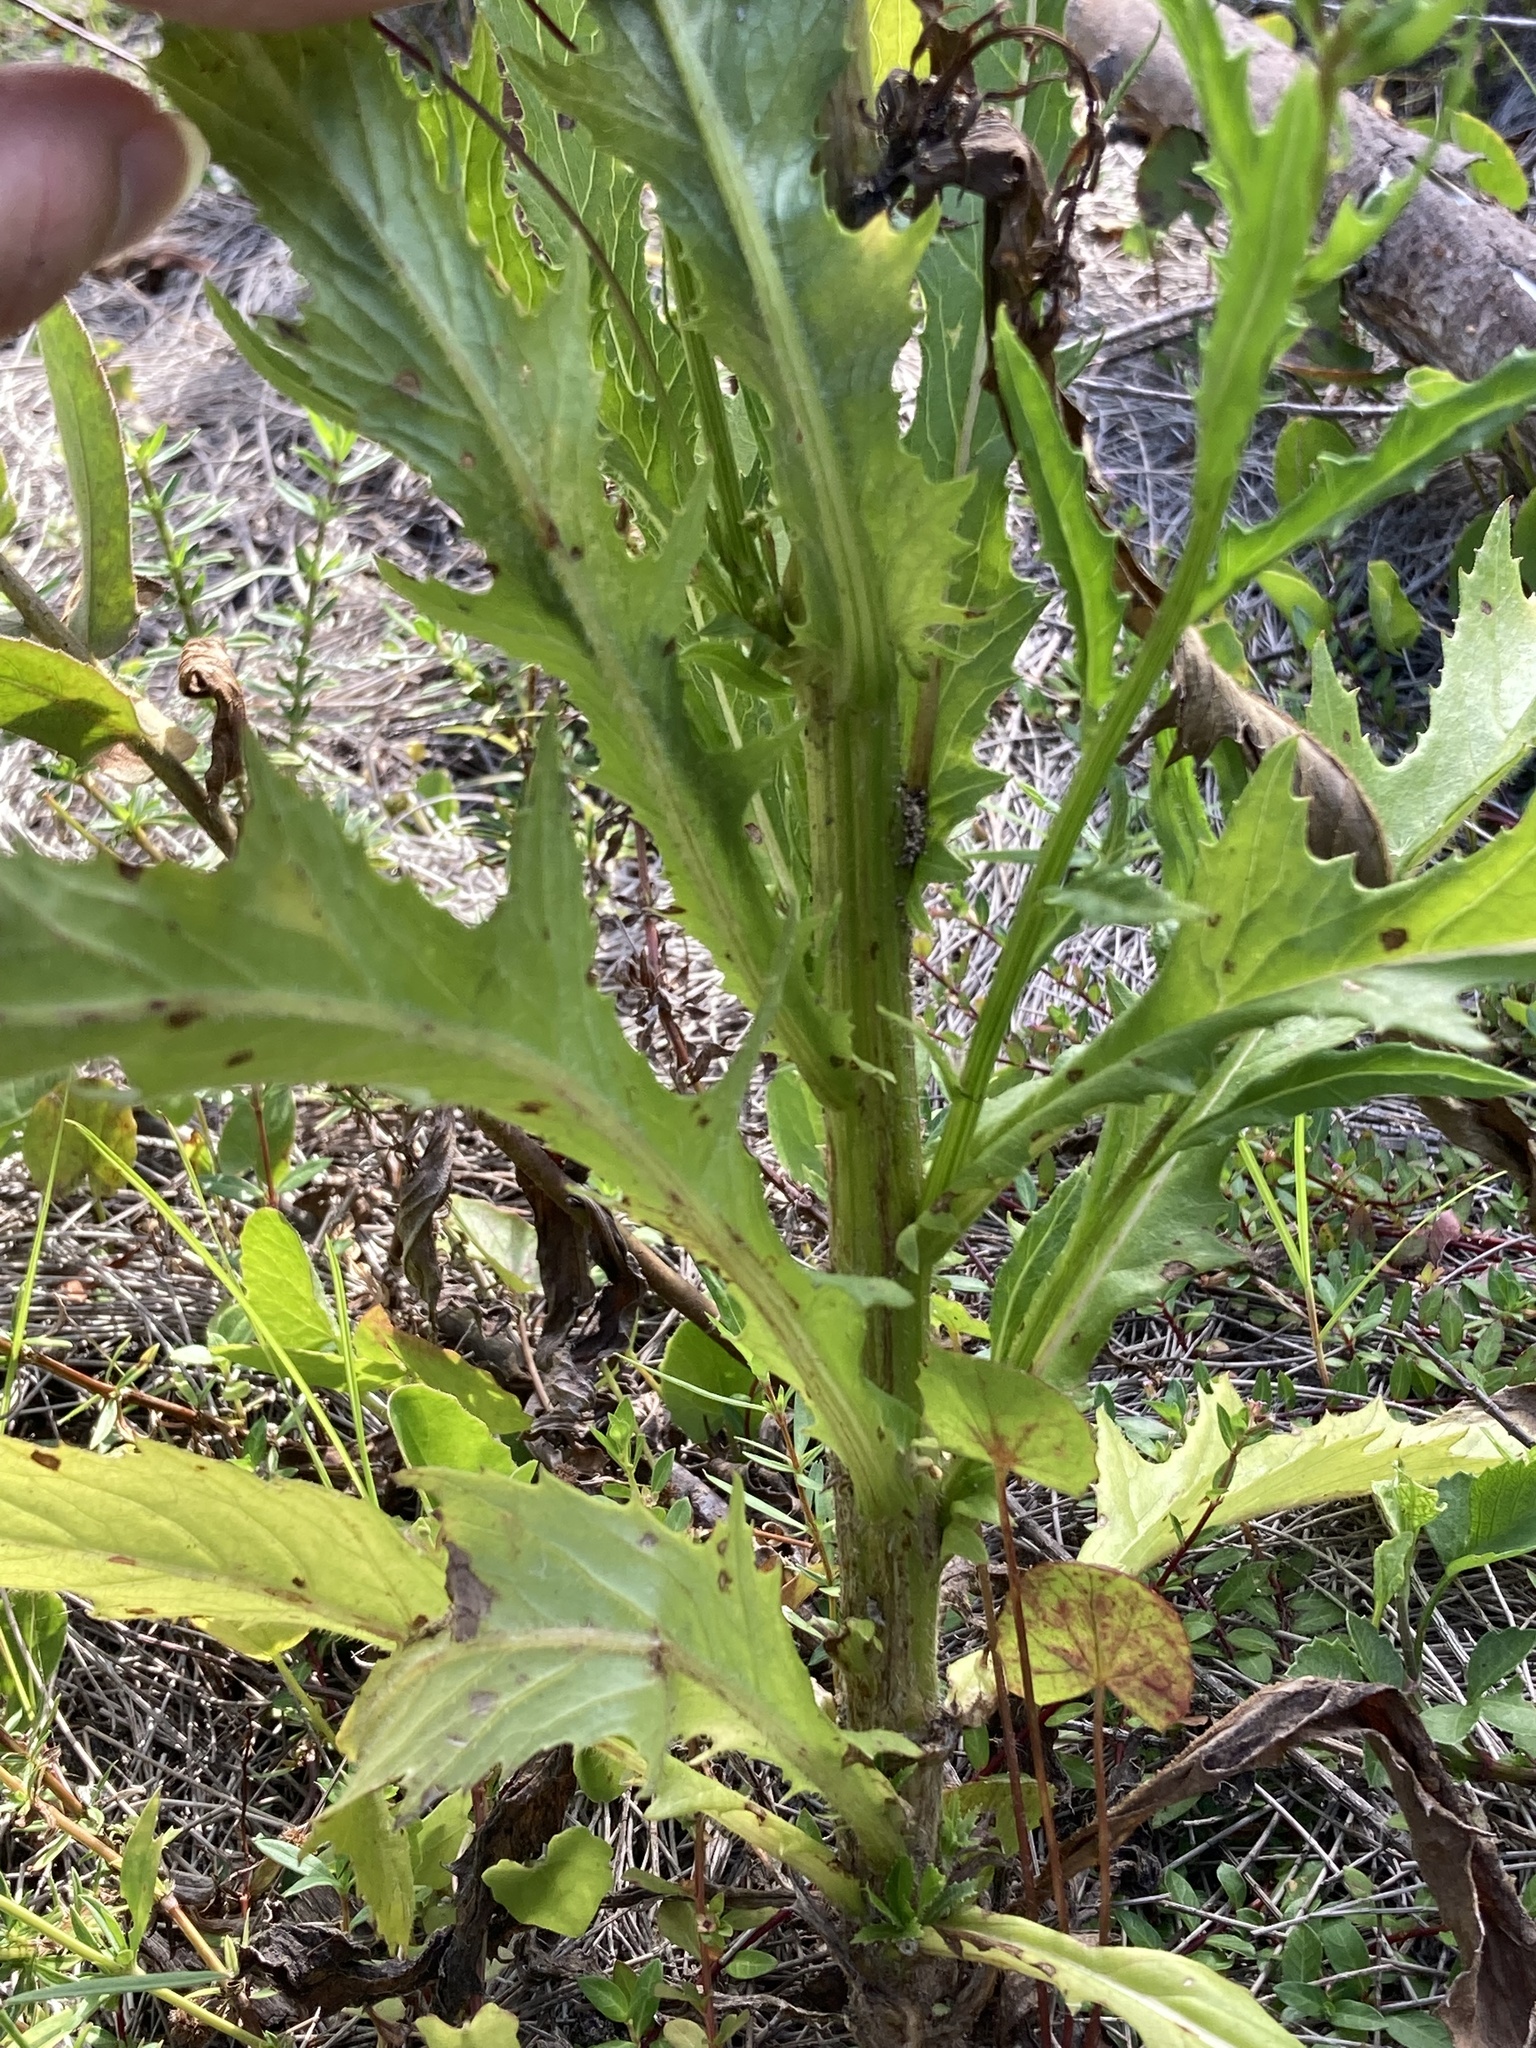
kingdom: Plantae
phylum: Tracheophyta
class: Magnoliopsida
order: Asterales
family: Asteraceae
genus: Erechtites
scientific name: Erechtites hieraciifolius
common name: American burnweed
